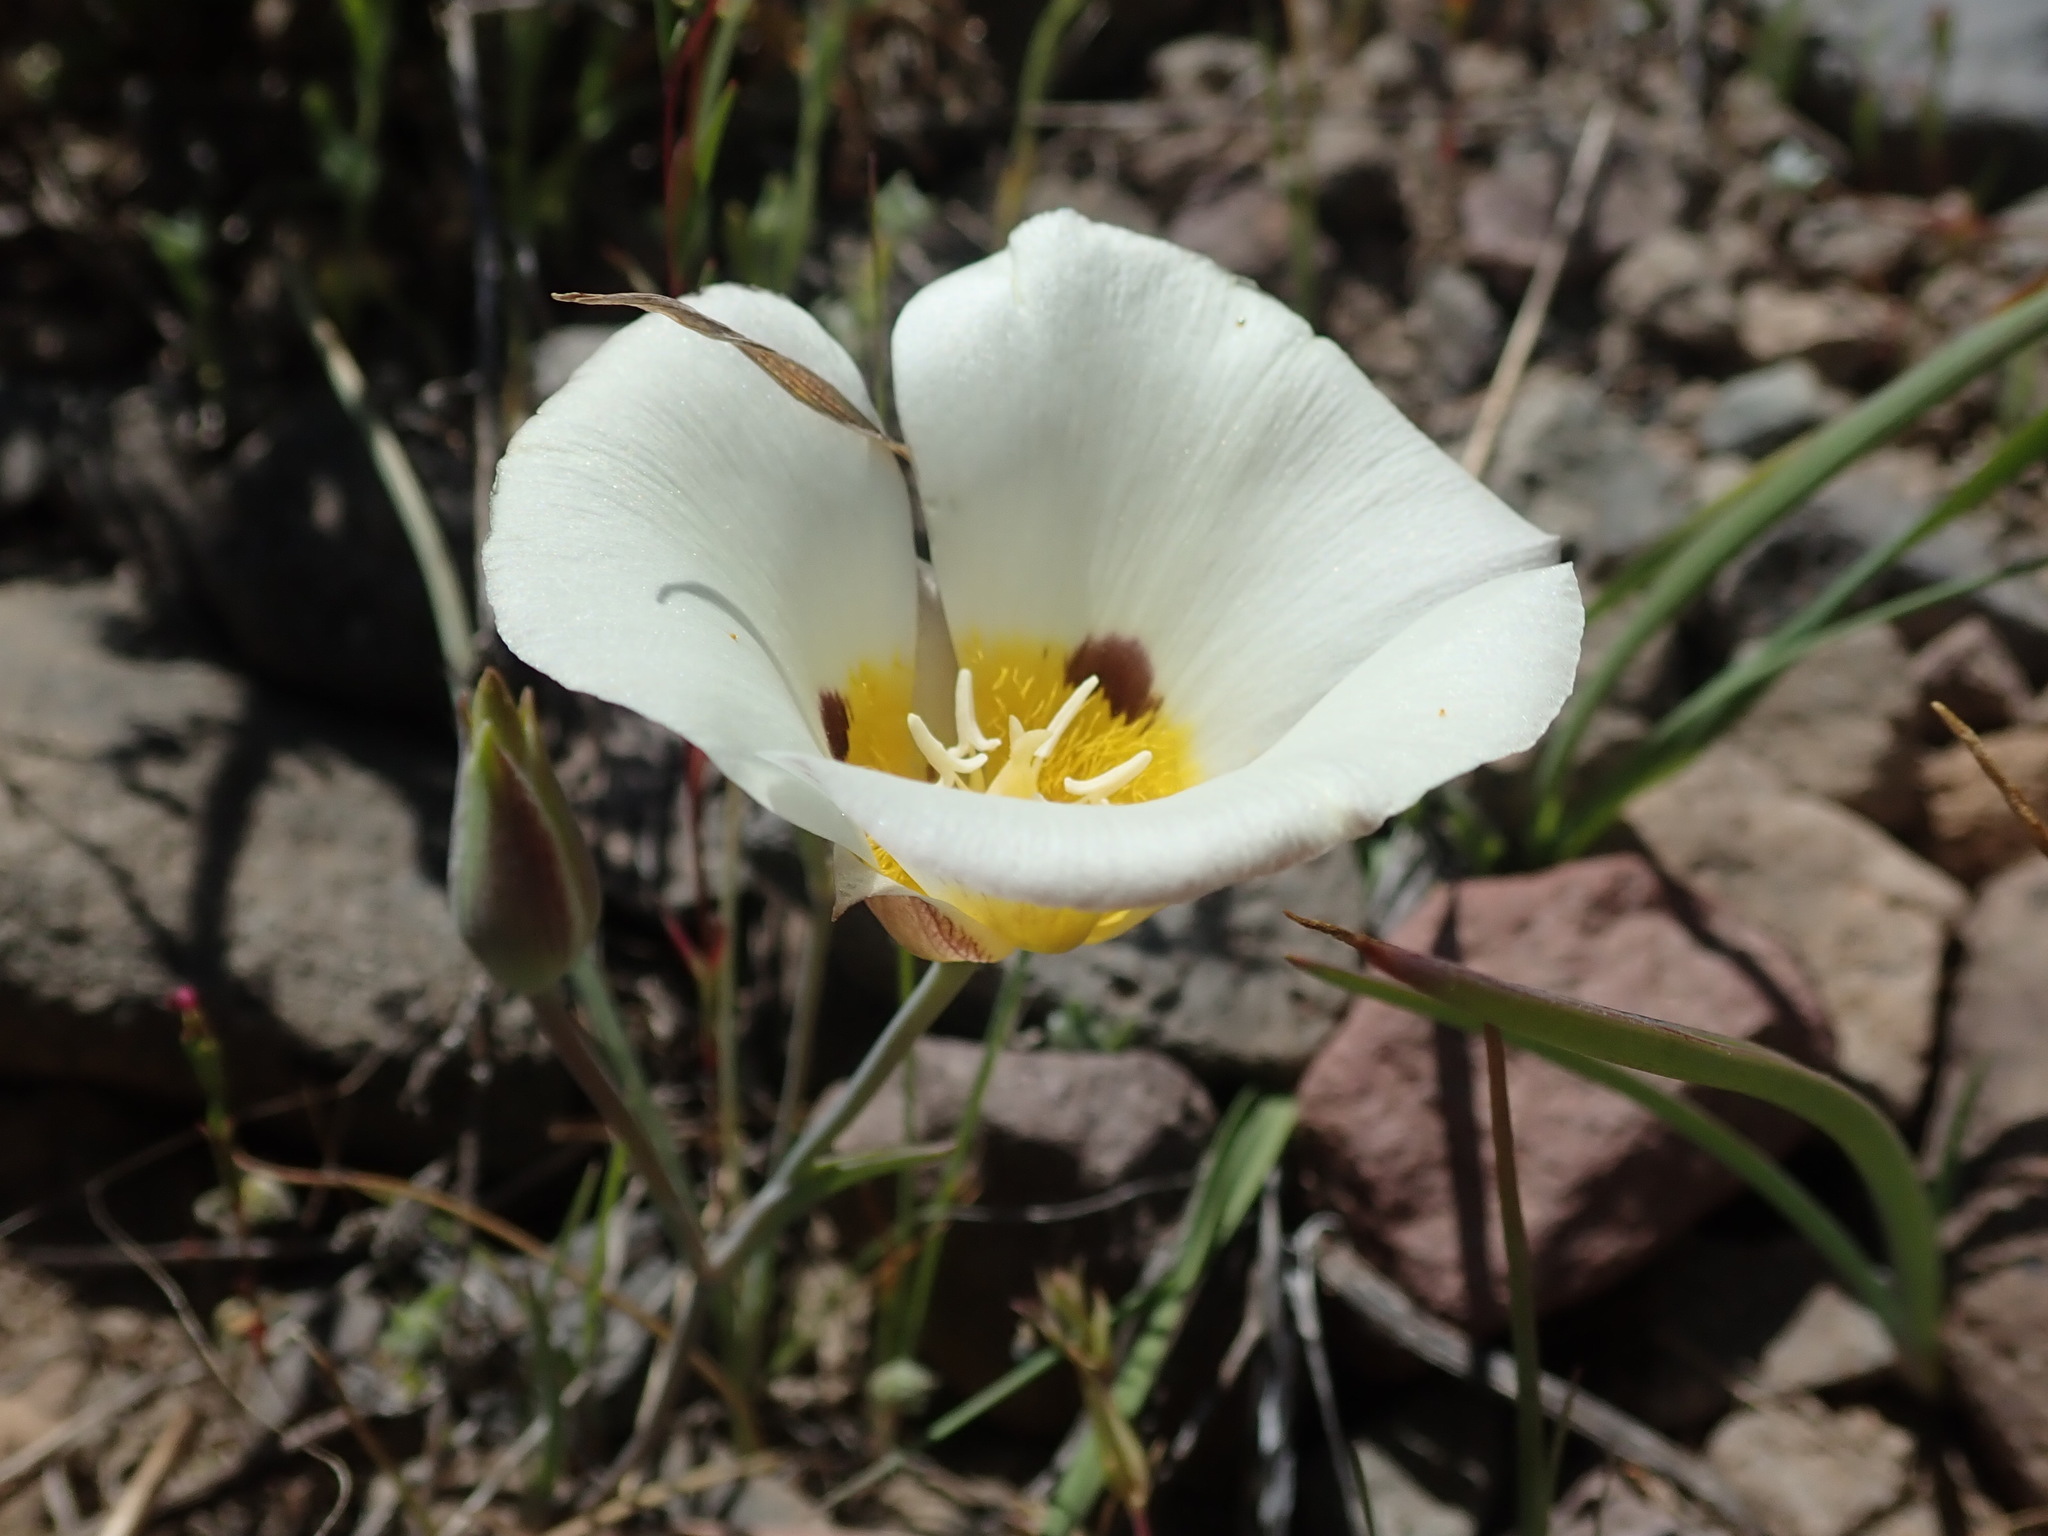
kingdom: Plantae
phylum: Tracheophyta
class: Liliopsida
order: Liliales
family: Liliaceae
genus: Calochortus
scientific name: Calochortus leichtlinii
